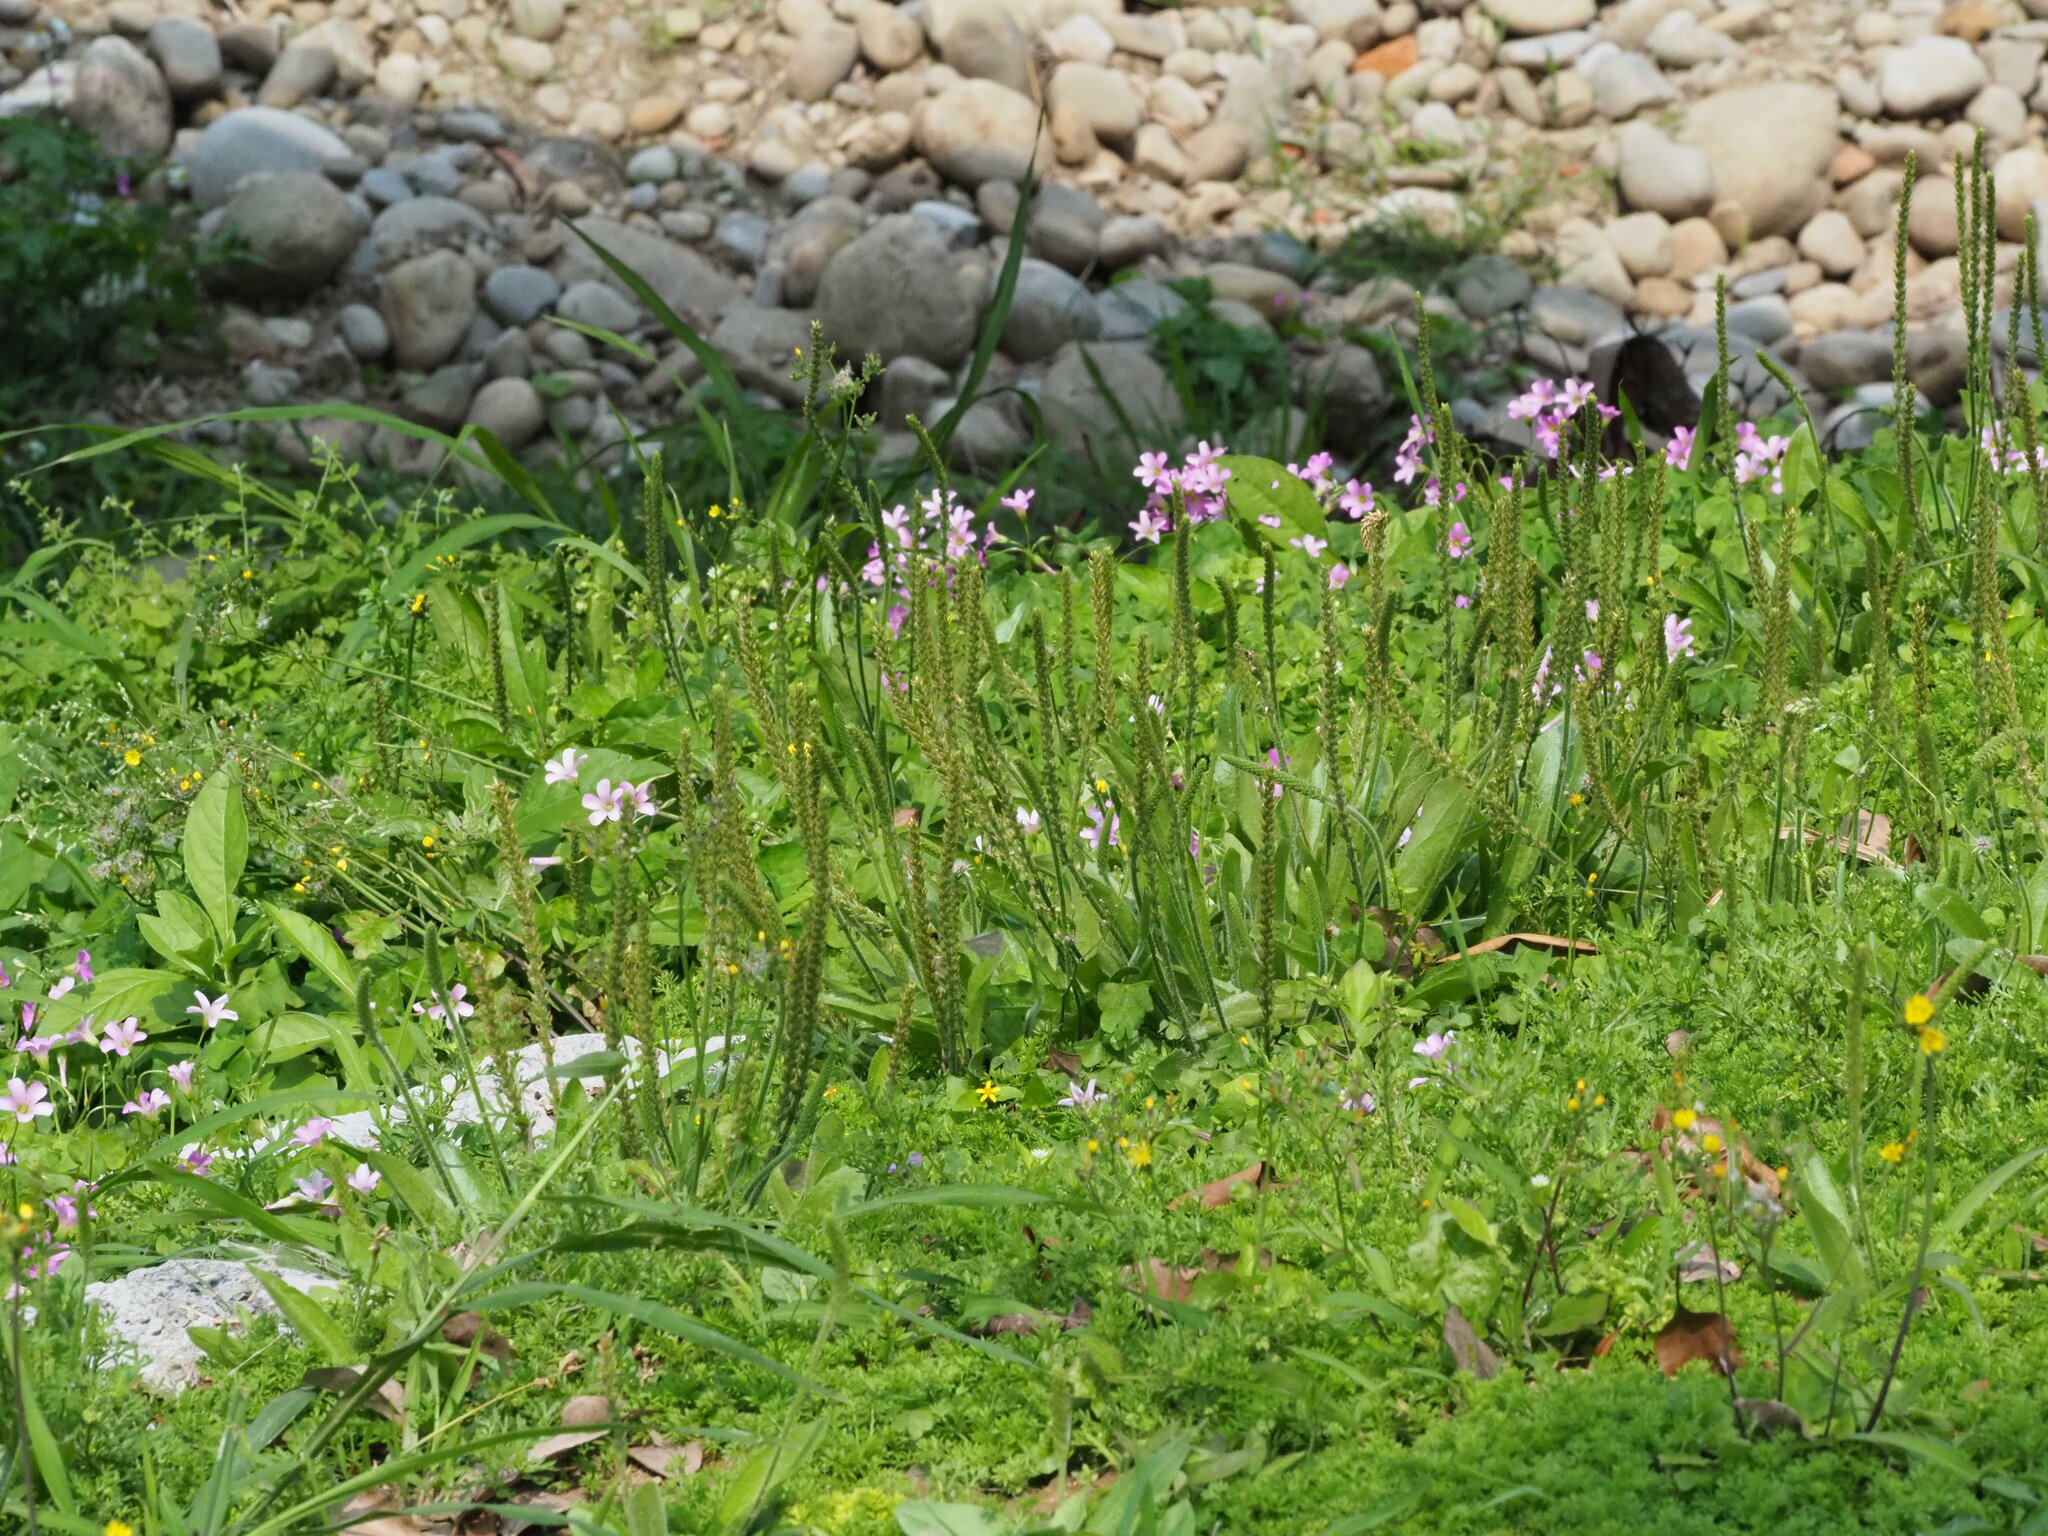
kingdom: Plantae
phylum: Tracheophyta
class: Magnoliopsida
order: Lamiales
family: Plantaginaceae
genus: Plantago
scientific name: Plantago virginica
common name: Hoary plantain
